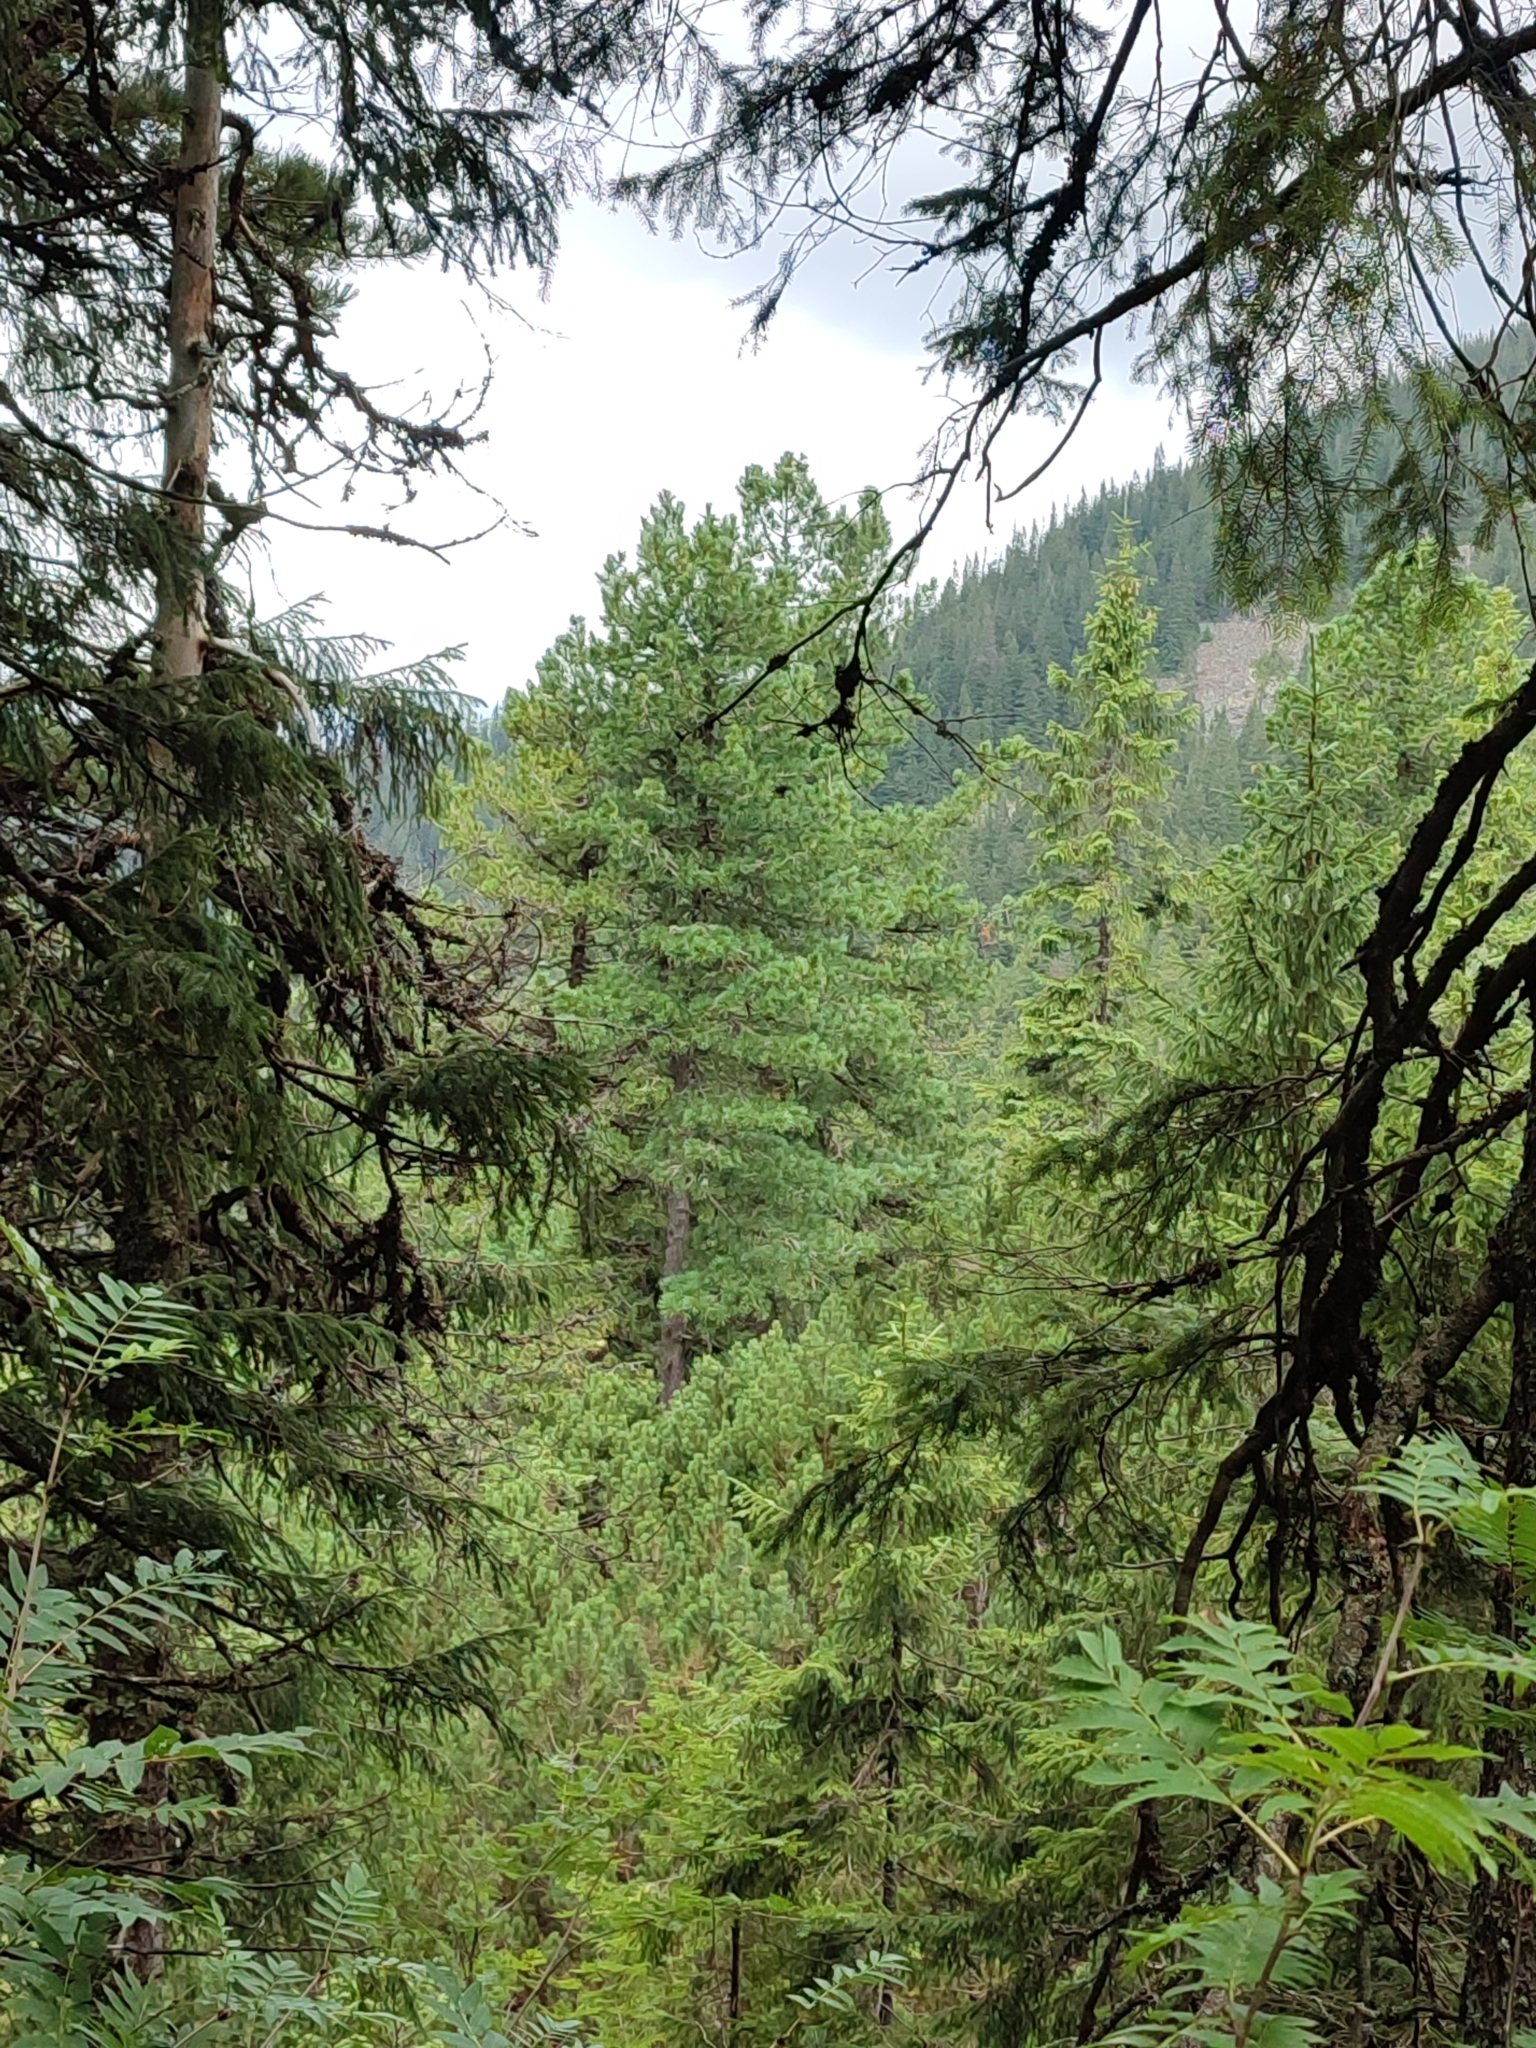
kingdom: Plantae
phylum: Tracheophyta
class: Pinopsida
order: Pinales
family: Pinaceae
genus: Pinus
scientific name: Pinus cembra
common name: Arolla pine
